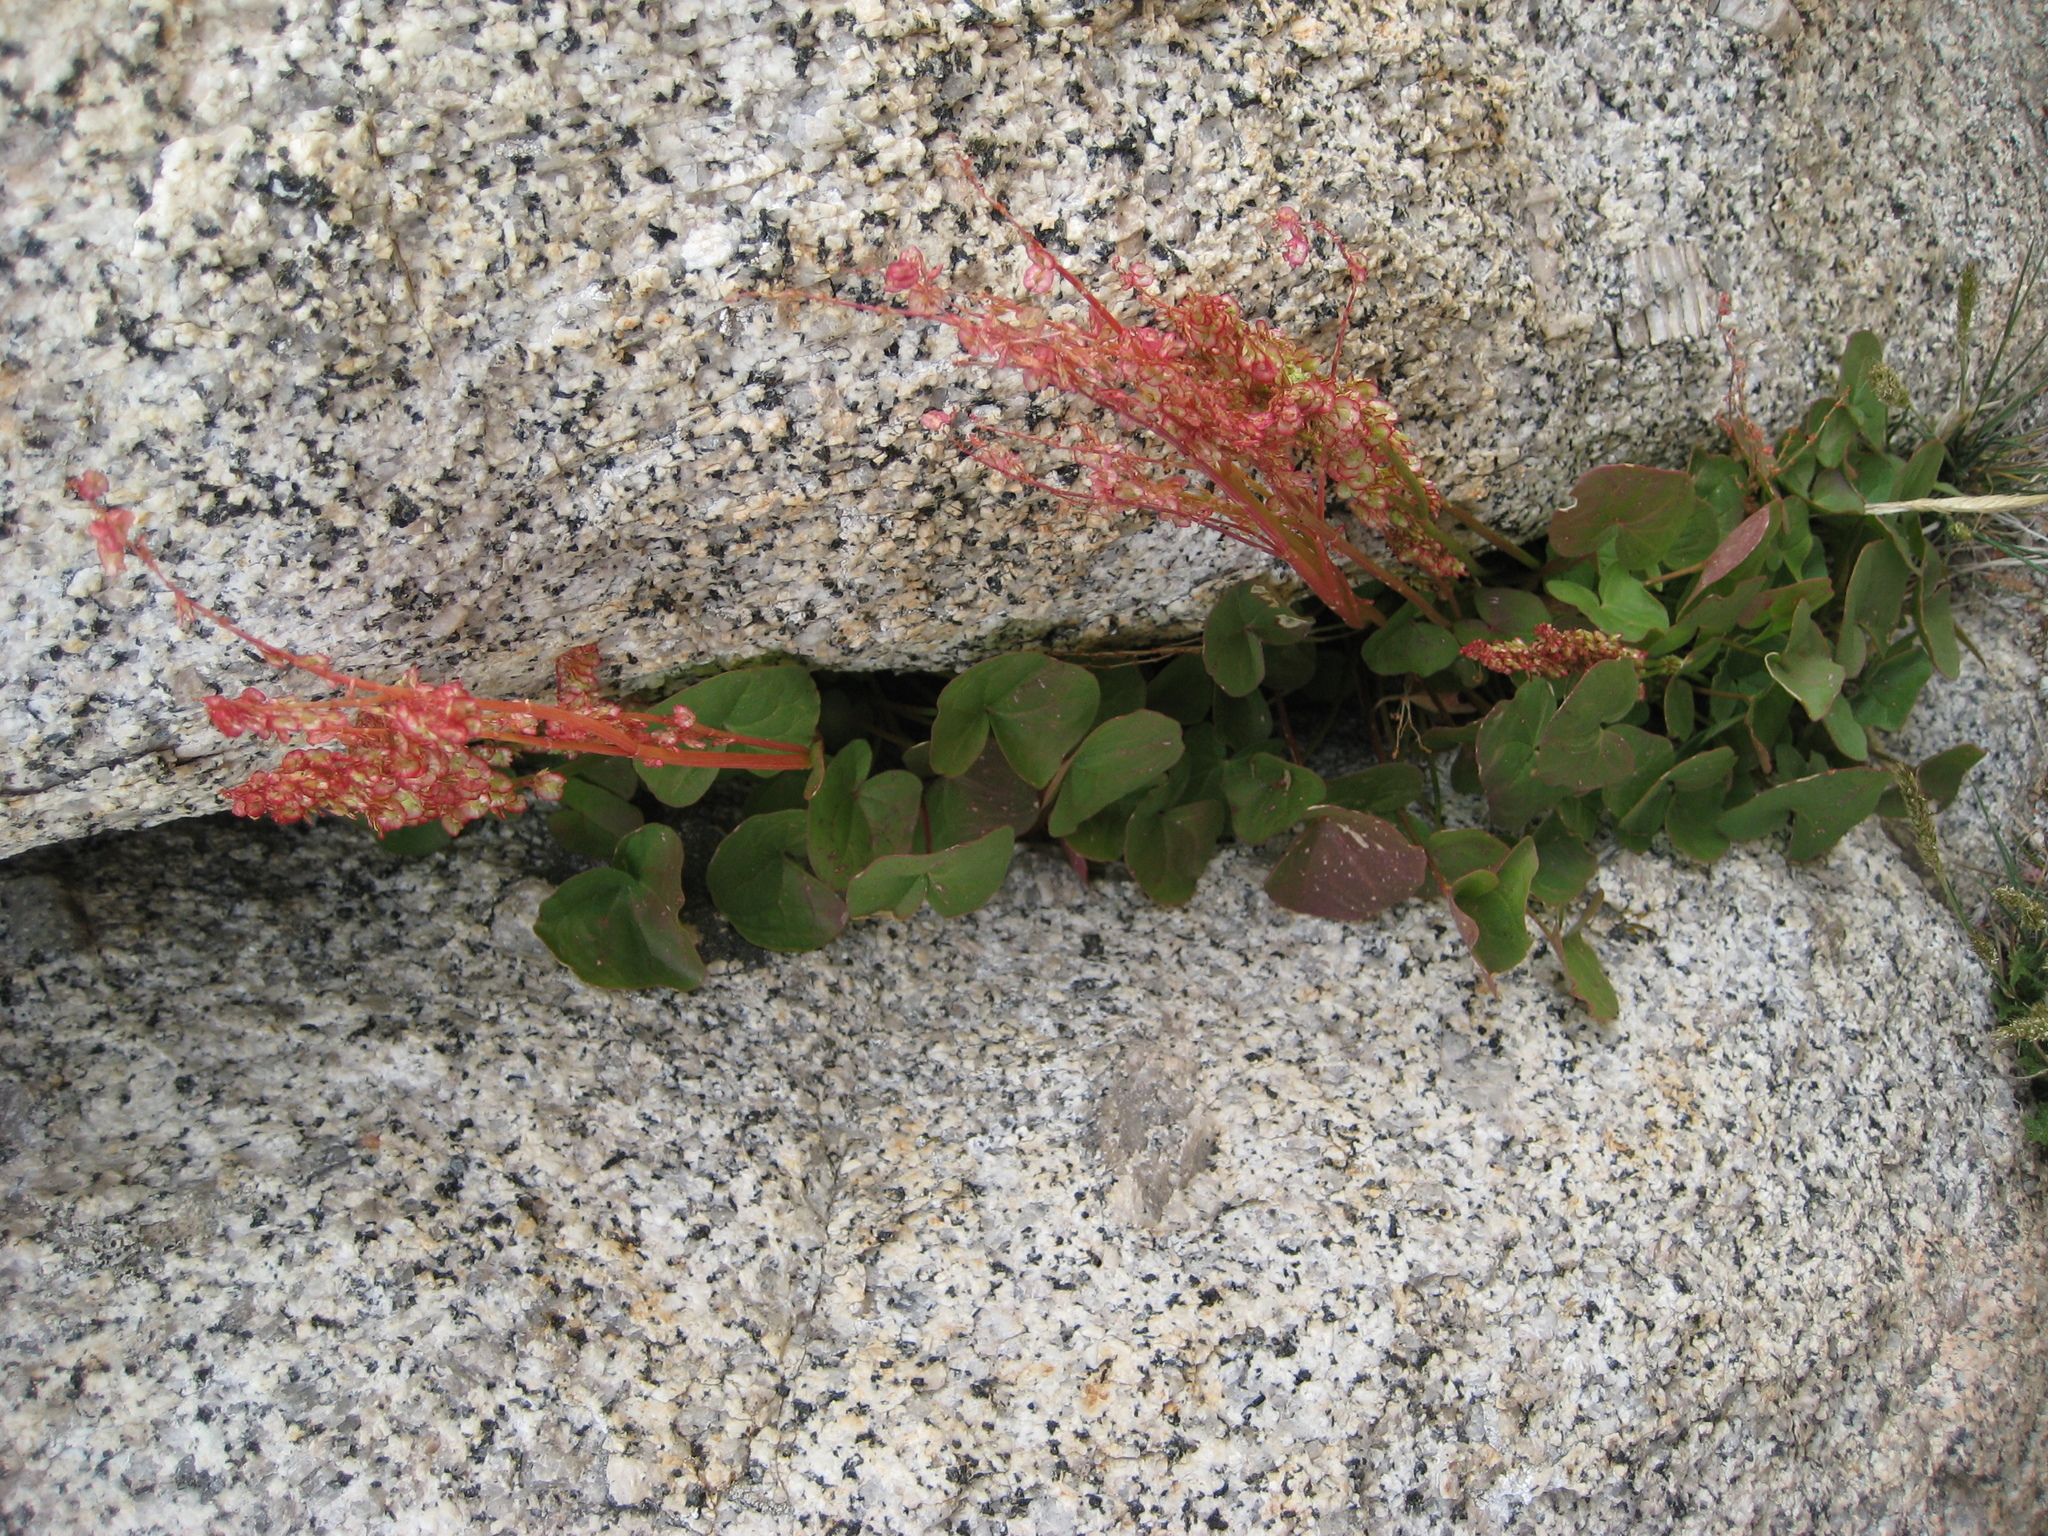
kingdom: Plantae
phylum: Tracheophyta
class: Magnoliopsida
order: Caryophyllales
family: Polygonaceae
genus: Oxyria
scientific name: Oxyria digyna
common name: Alpine mountain-sorrel
